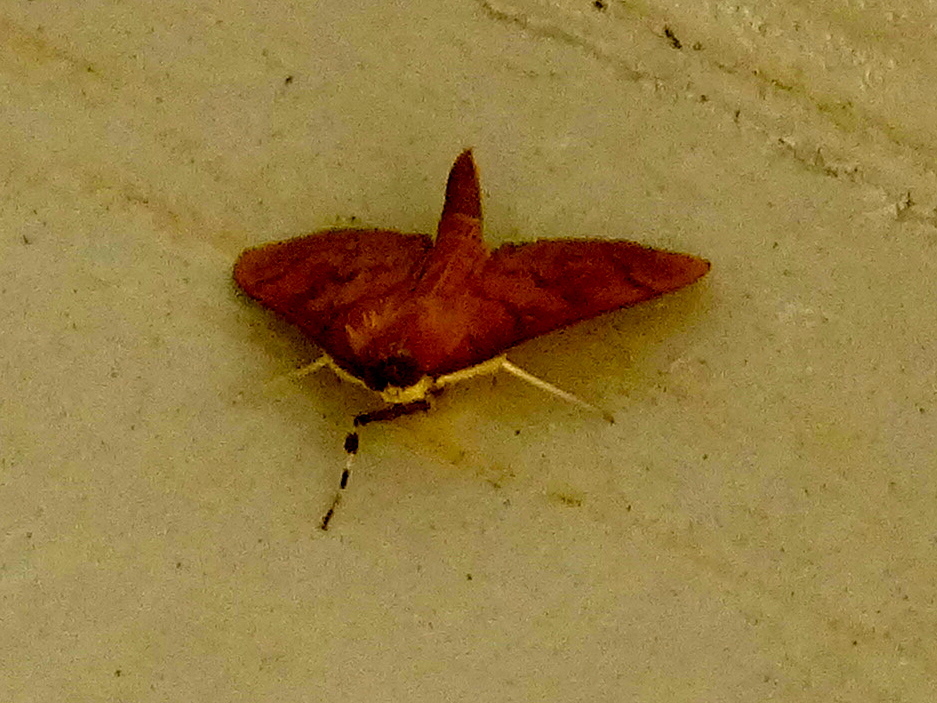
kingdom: Animalia
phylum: Arthropoda
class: Insecta
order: Lepidoptera
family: Crambidae
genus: Pyrausta
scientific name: Pyrausta
